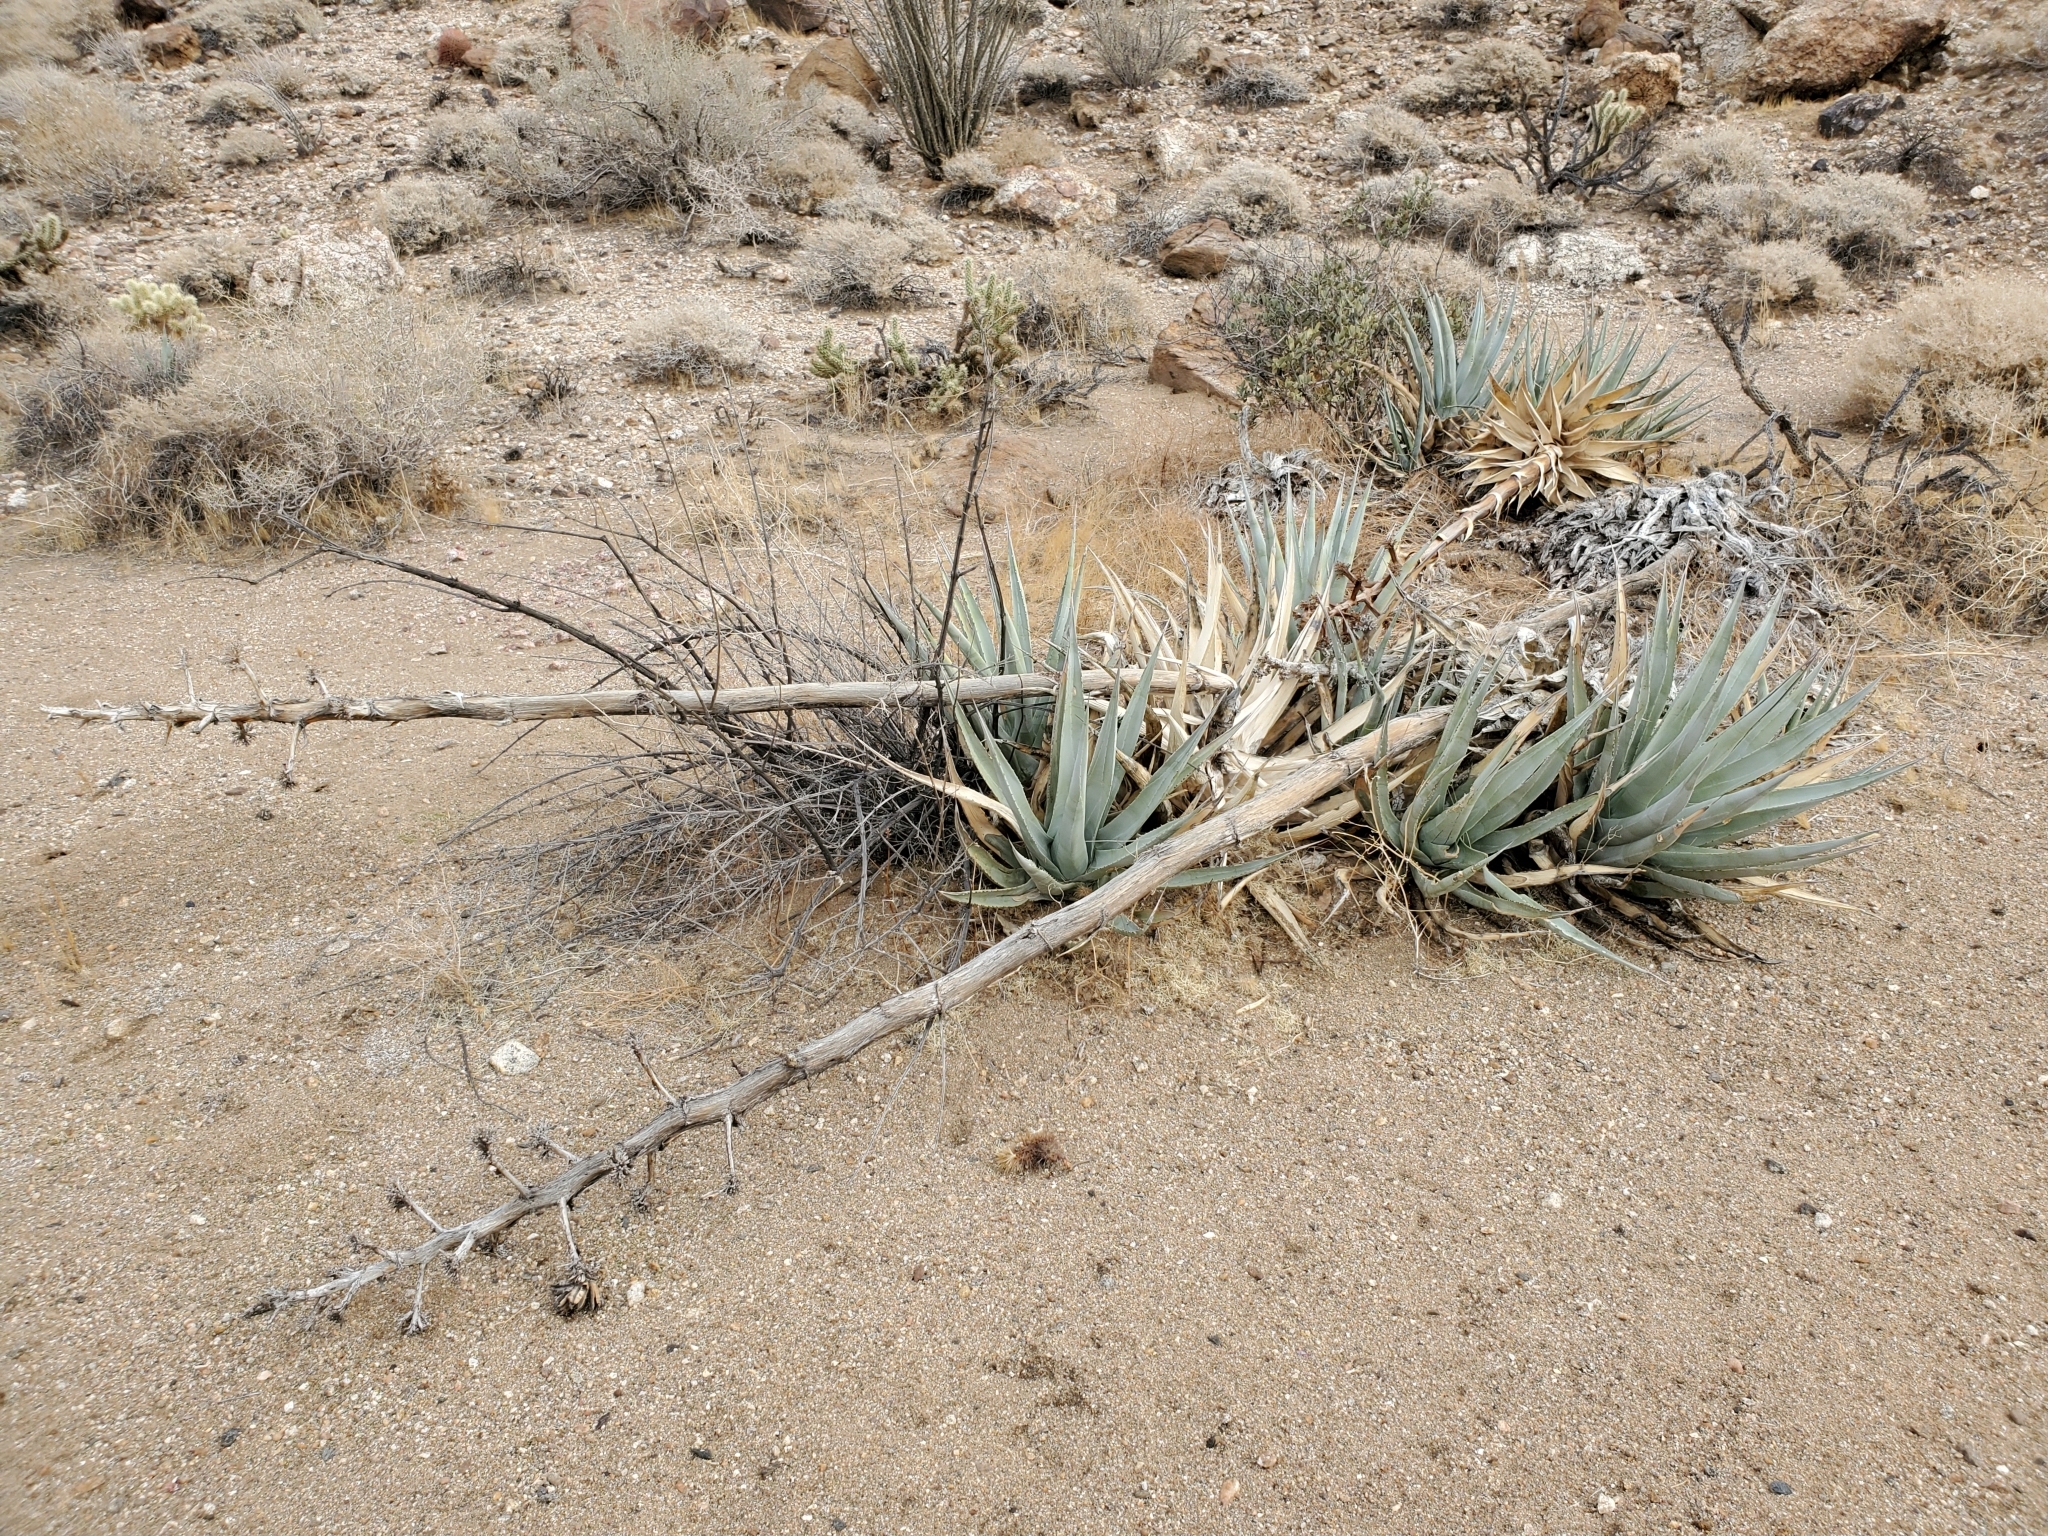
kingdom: Plantae
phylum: Tracheophyta
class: Liliopsida
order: Asparagales
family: Asparagaceae
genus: Agave
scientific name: Agave deserti
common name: Desert agave
